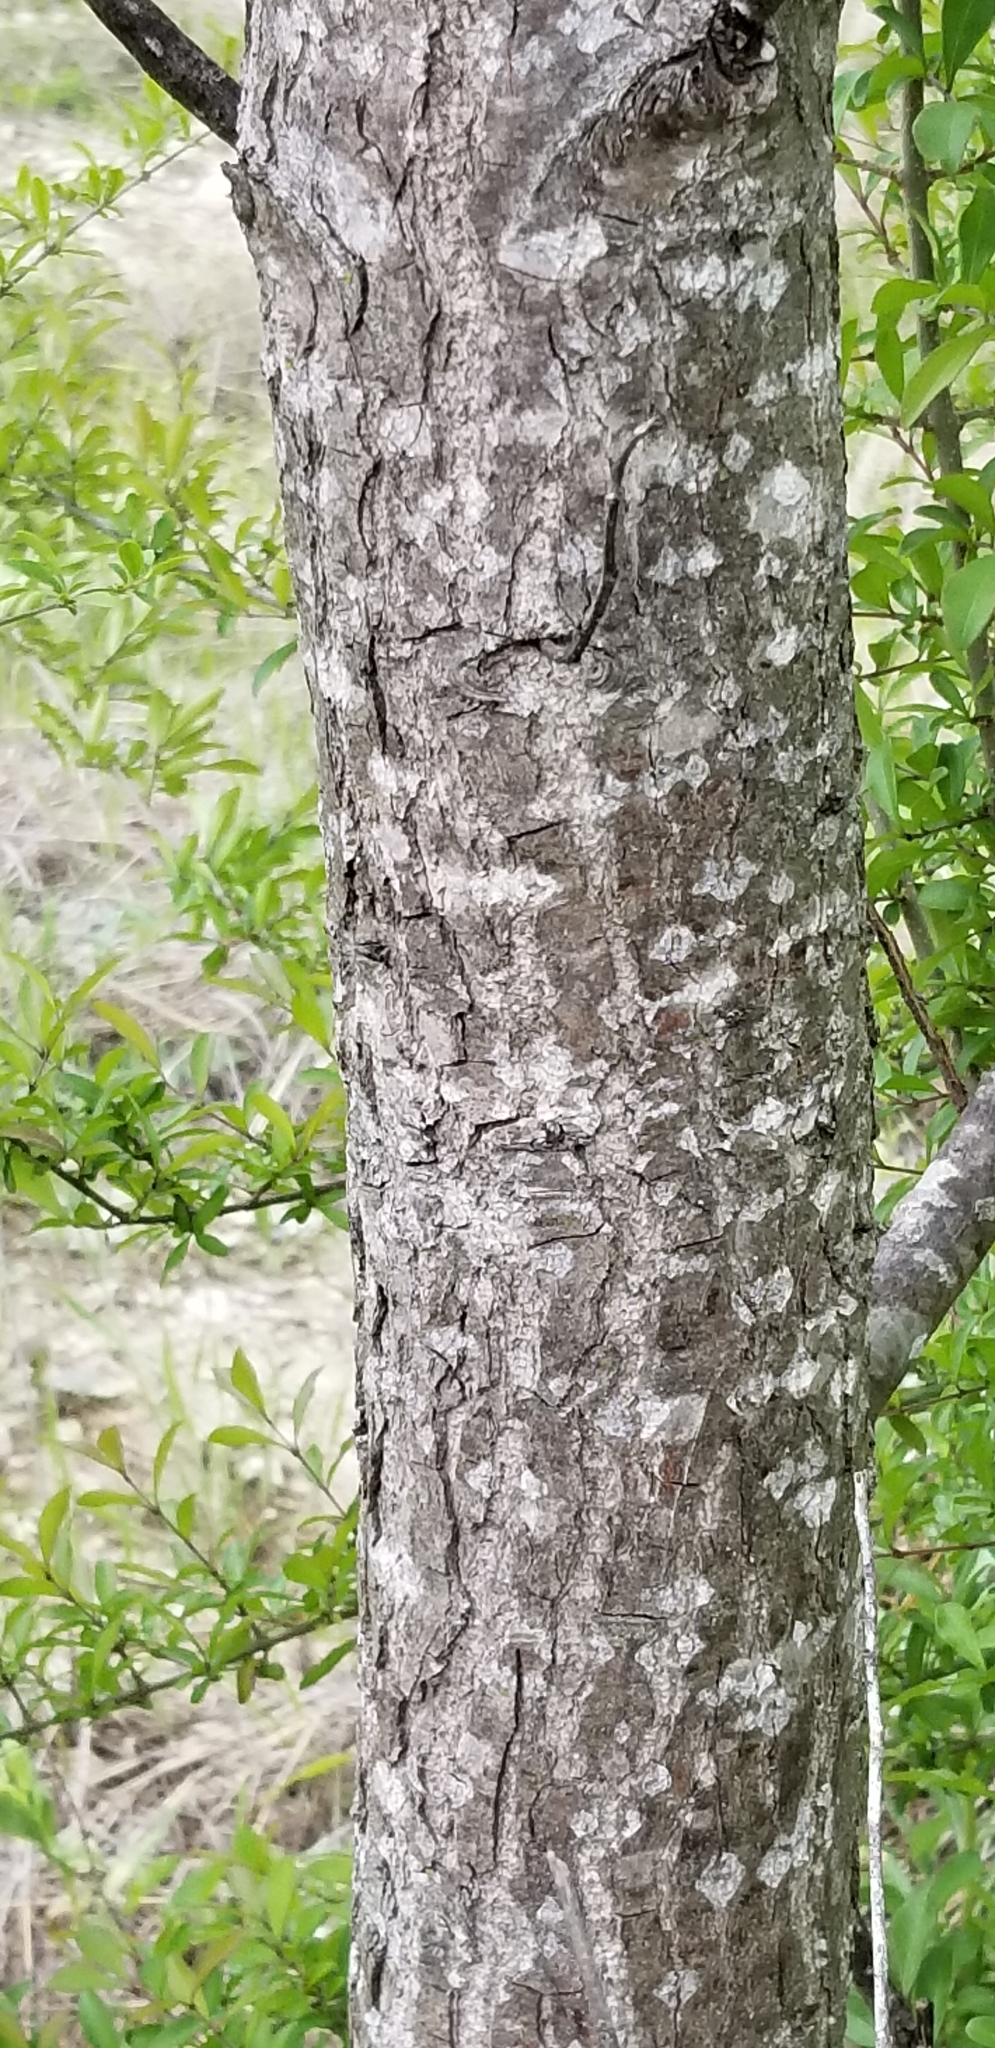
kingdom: Plantae
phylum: Tracheophyta
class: Magnoliopsida
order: Malpighiales
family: Salicaceae
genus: Populus
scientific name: Populus deltoides
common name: Eastern cottonwood
